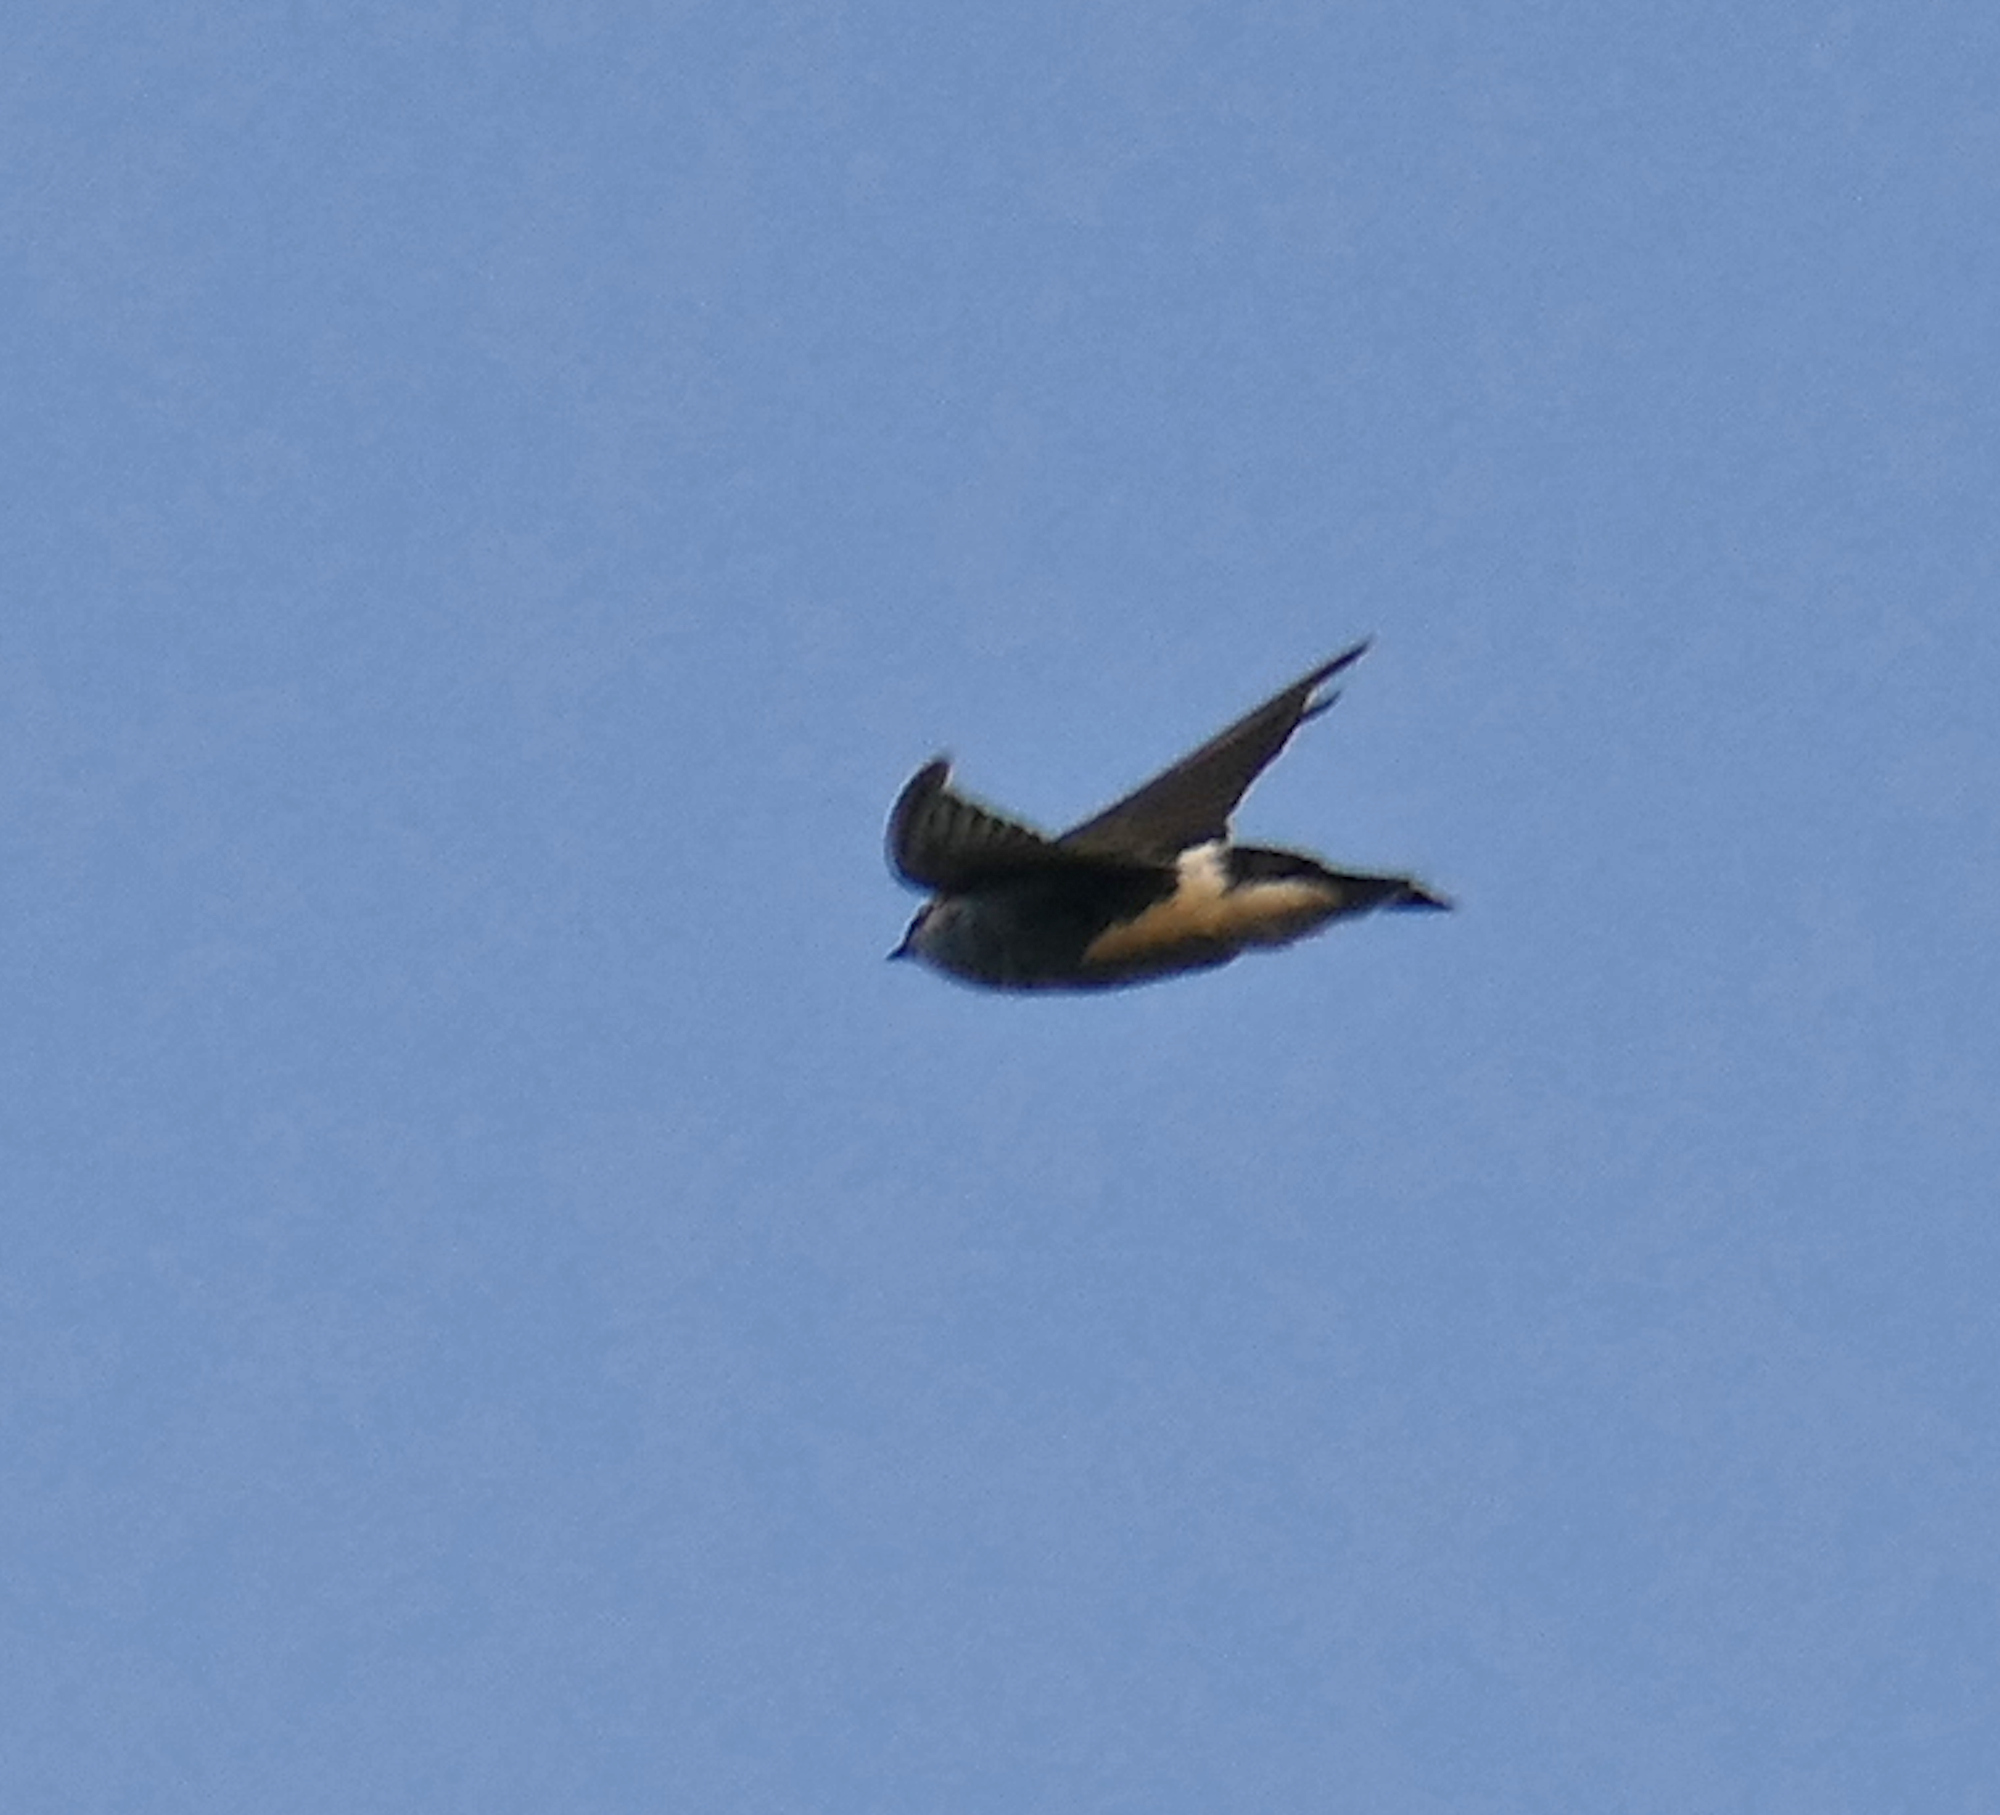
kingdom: Animalia
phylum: Chordata
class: Aves
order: Passeriformes
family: Hirundinidae
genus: Tachycineta
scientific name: Tachycineta thalassina
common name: Violet-green swallow
